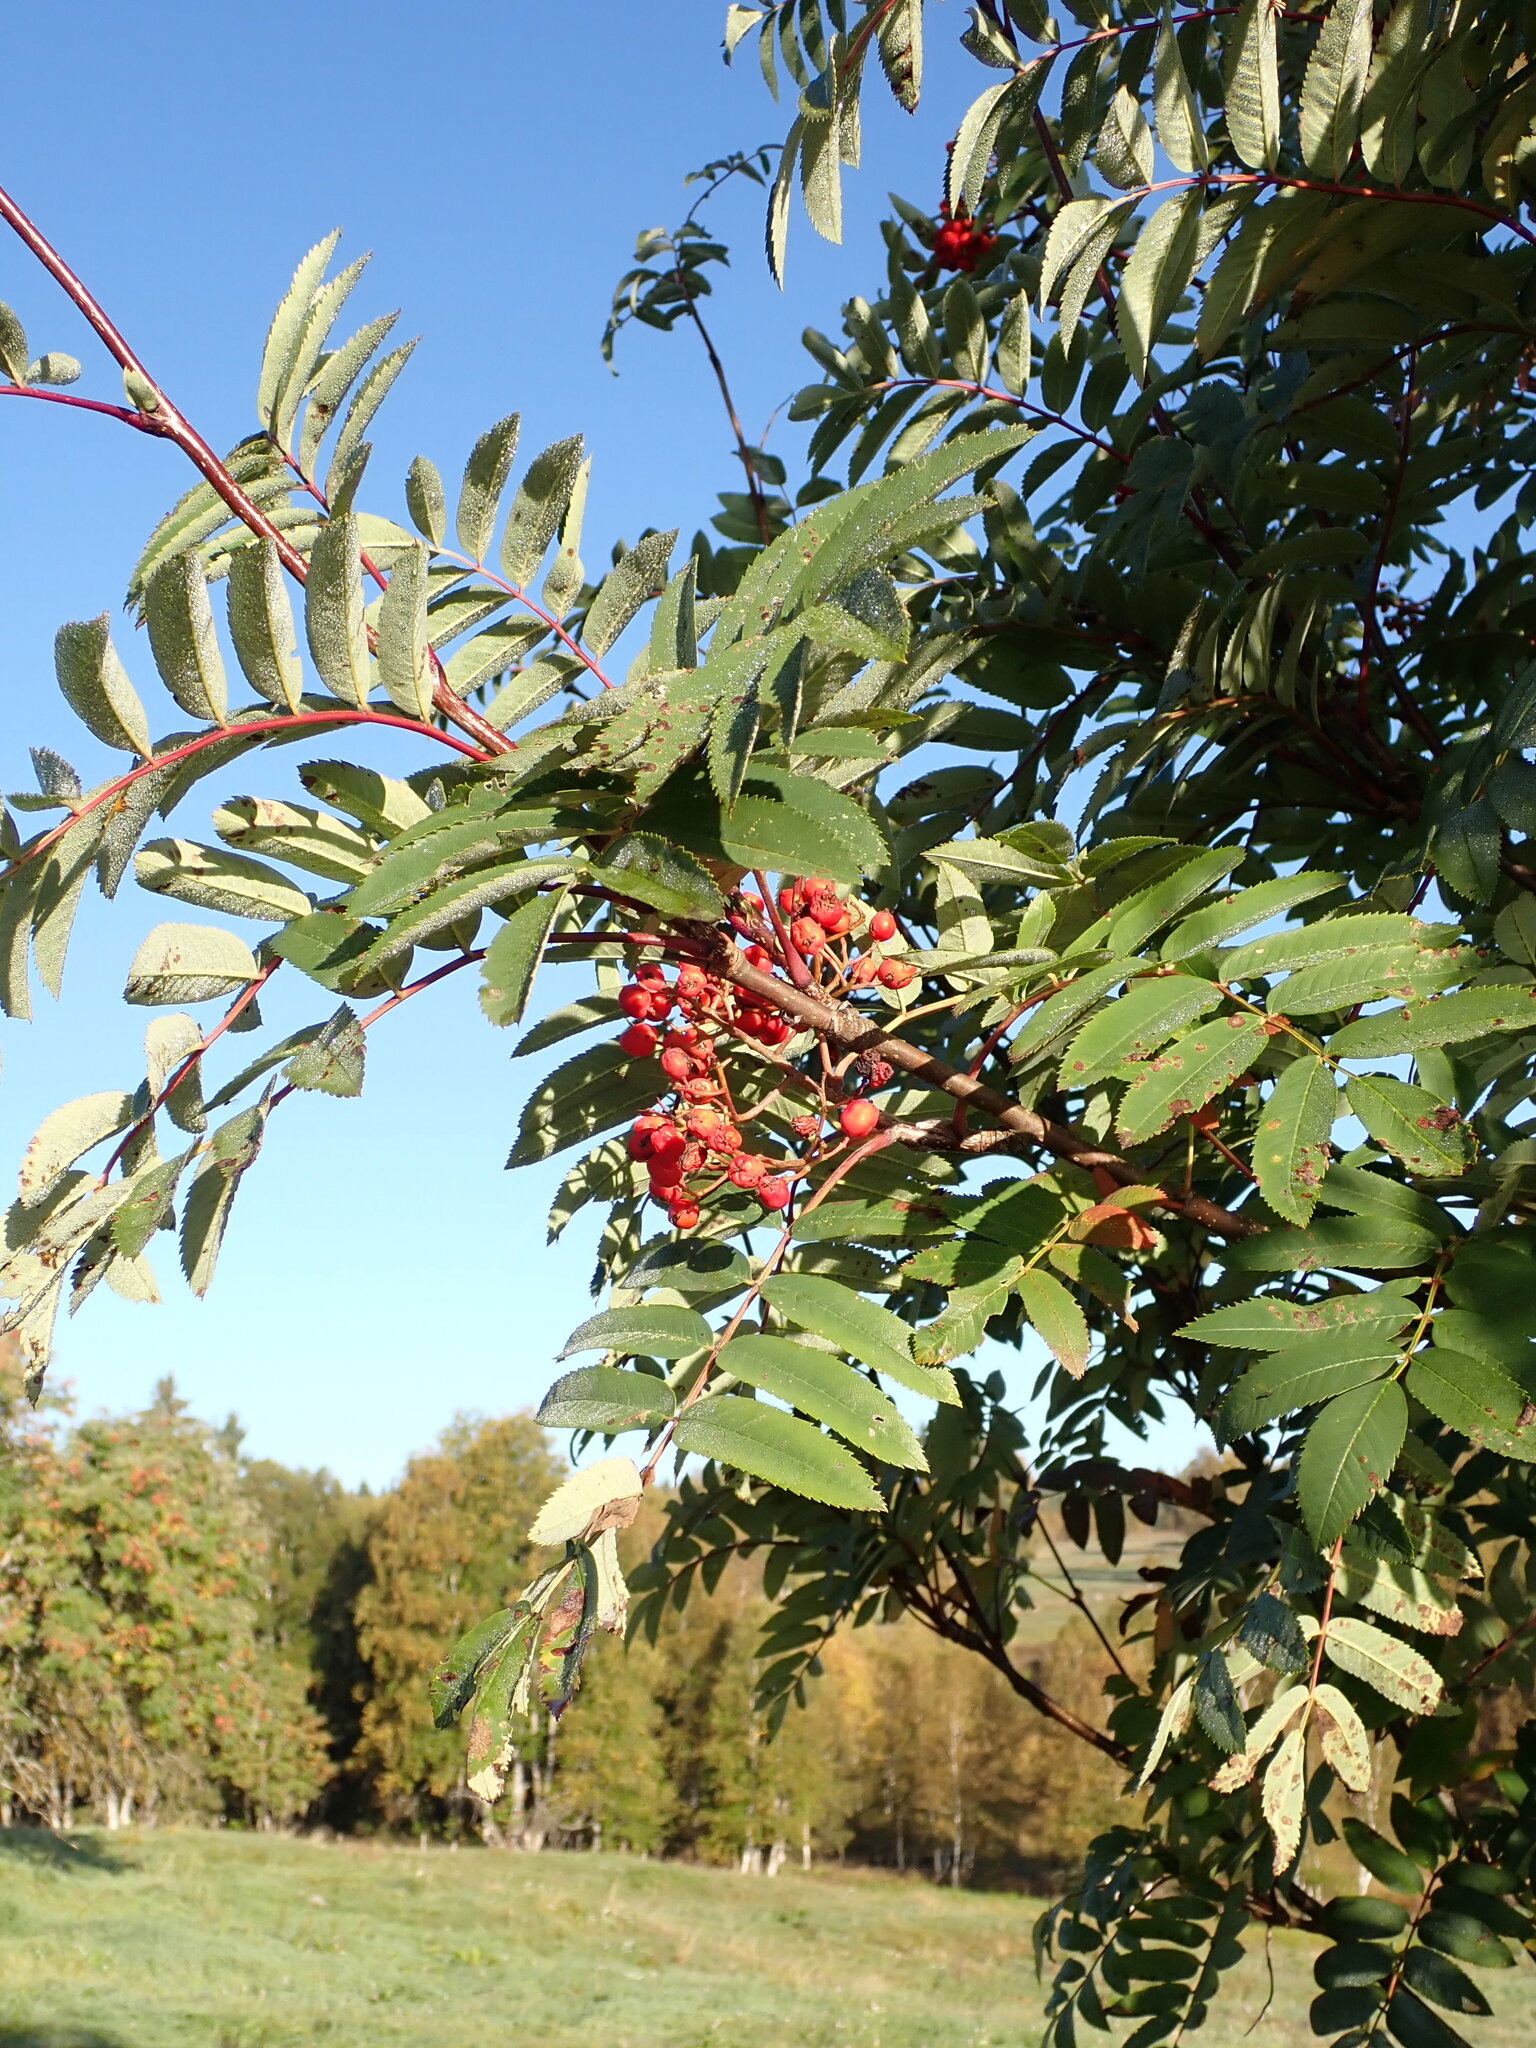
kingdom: Plantae
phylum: Tracheophyta
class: Magnoliopsida
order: Rosales
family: Rosaceae
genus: Sorbus
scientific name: Sorbus aucuparia
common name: Rowan
